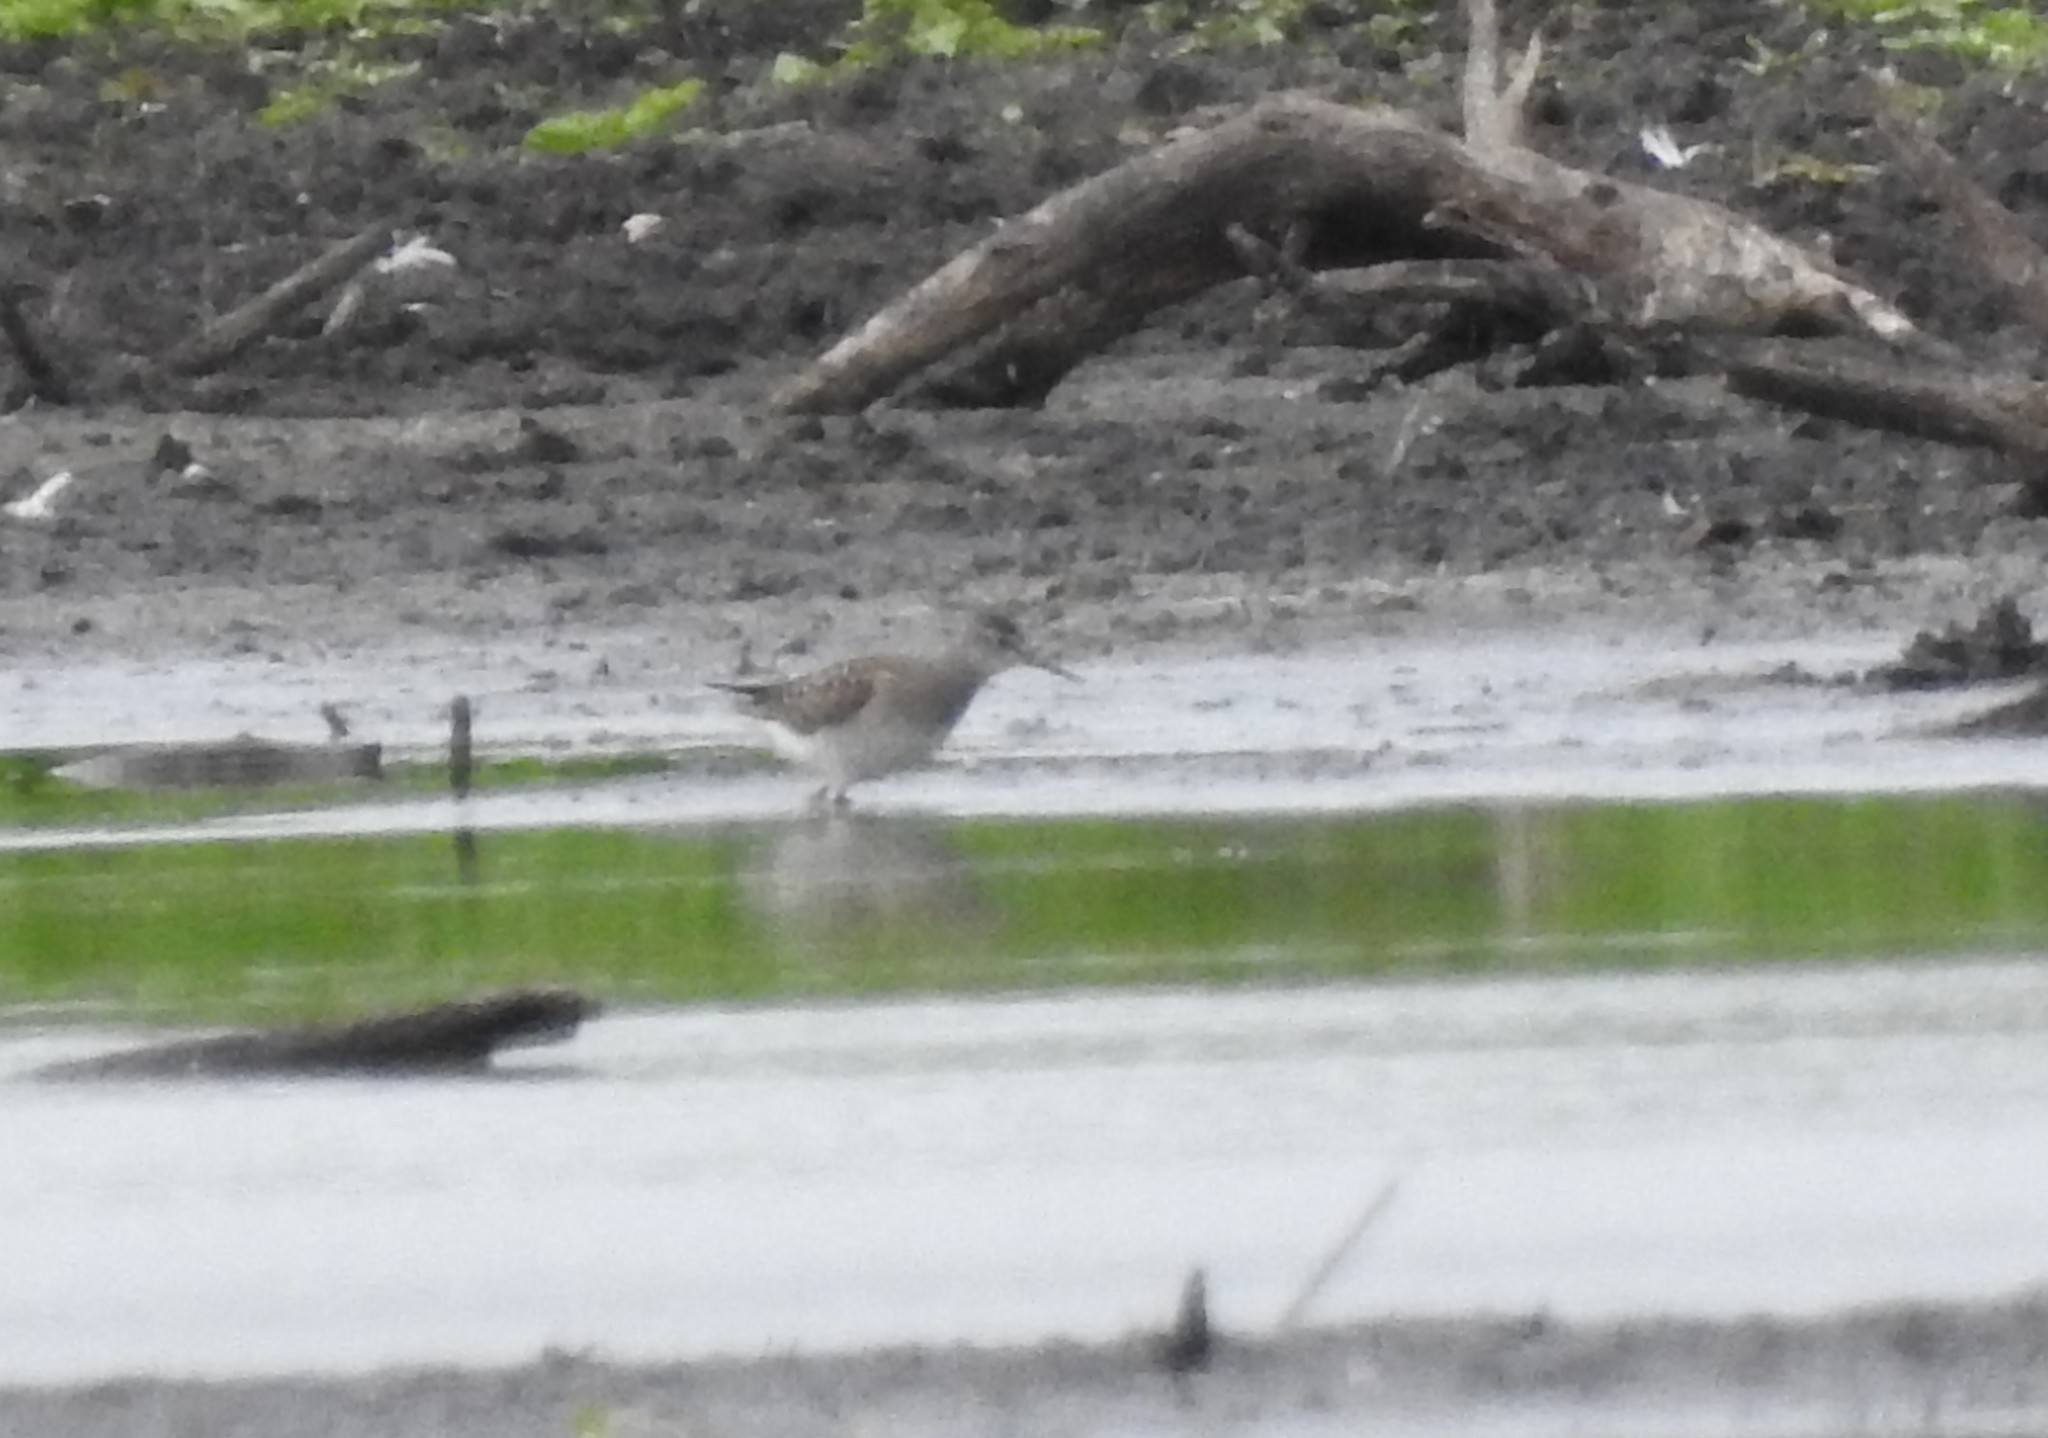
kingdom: Animalia
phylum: Chordata
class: Aves
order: Charadriiformes
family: Scolopacidae
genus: Tringa
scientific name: Tringa glareola
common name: Wood sandpiper
